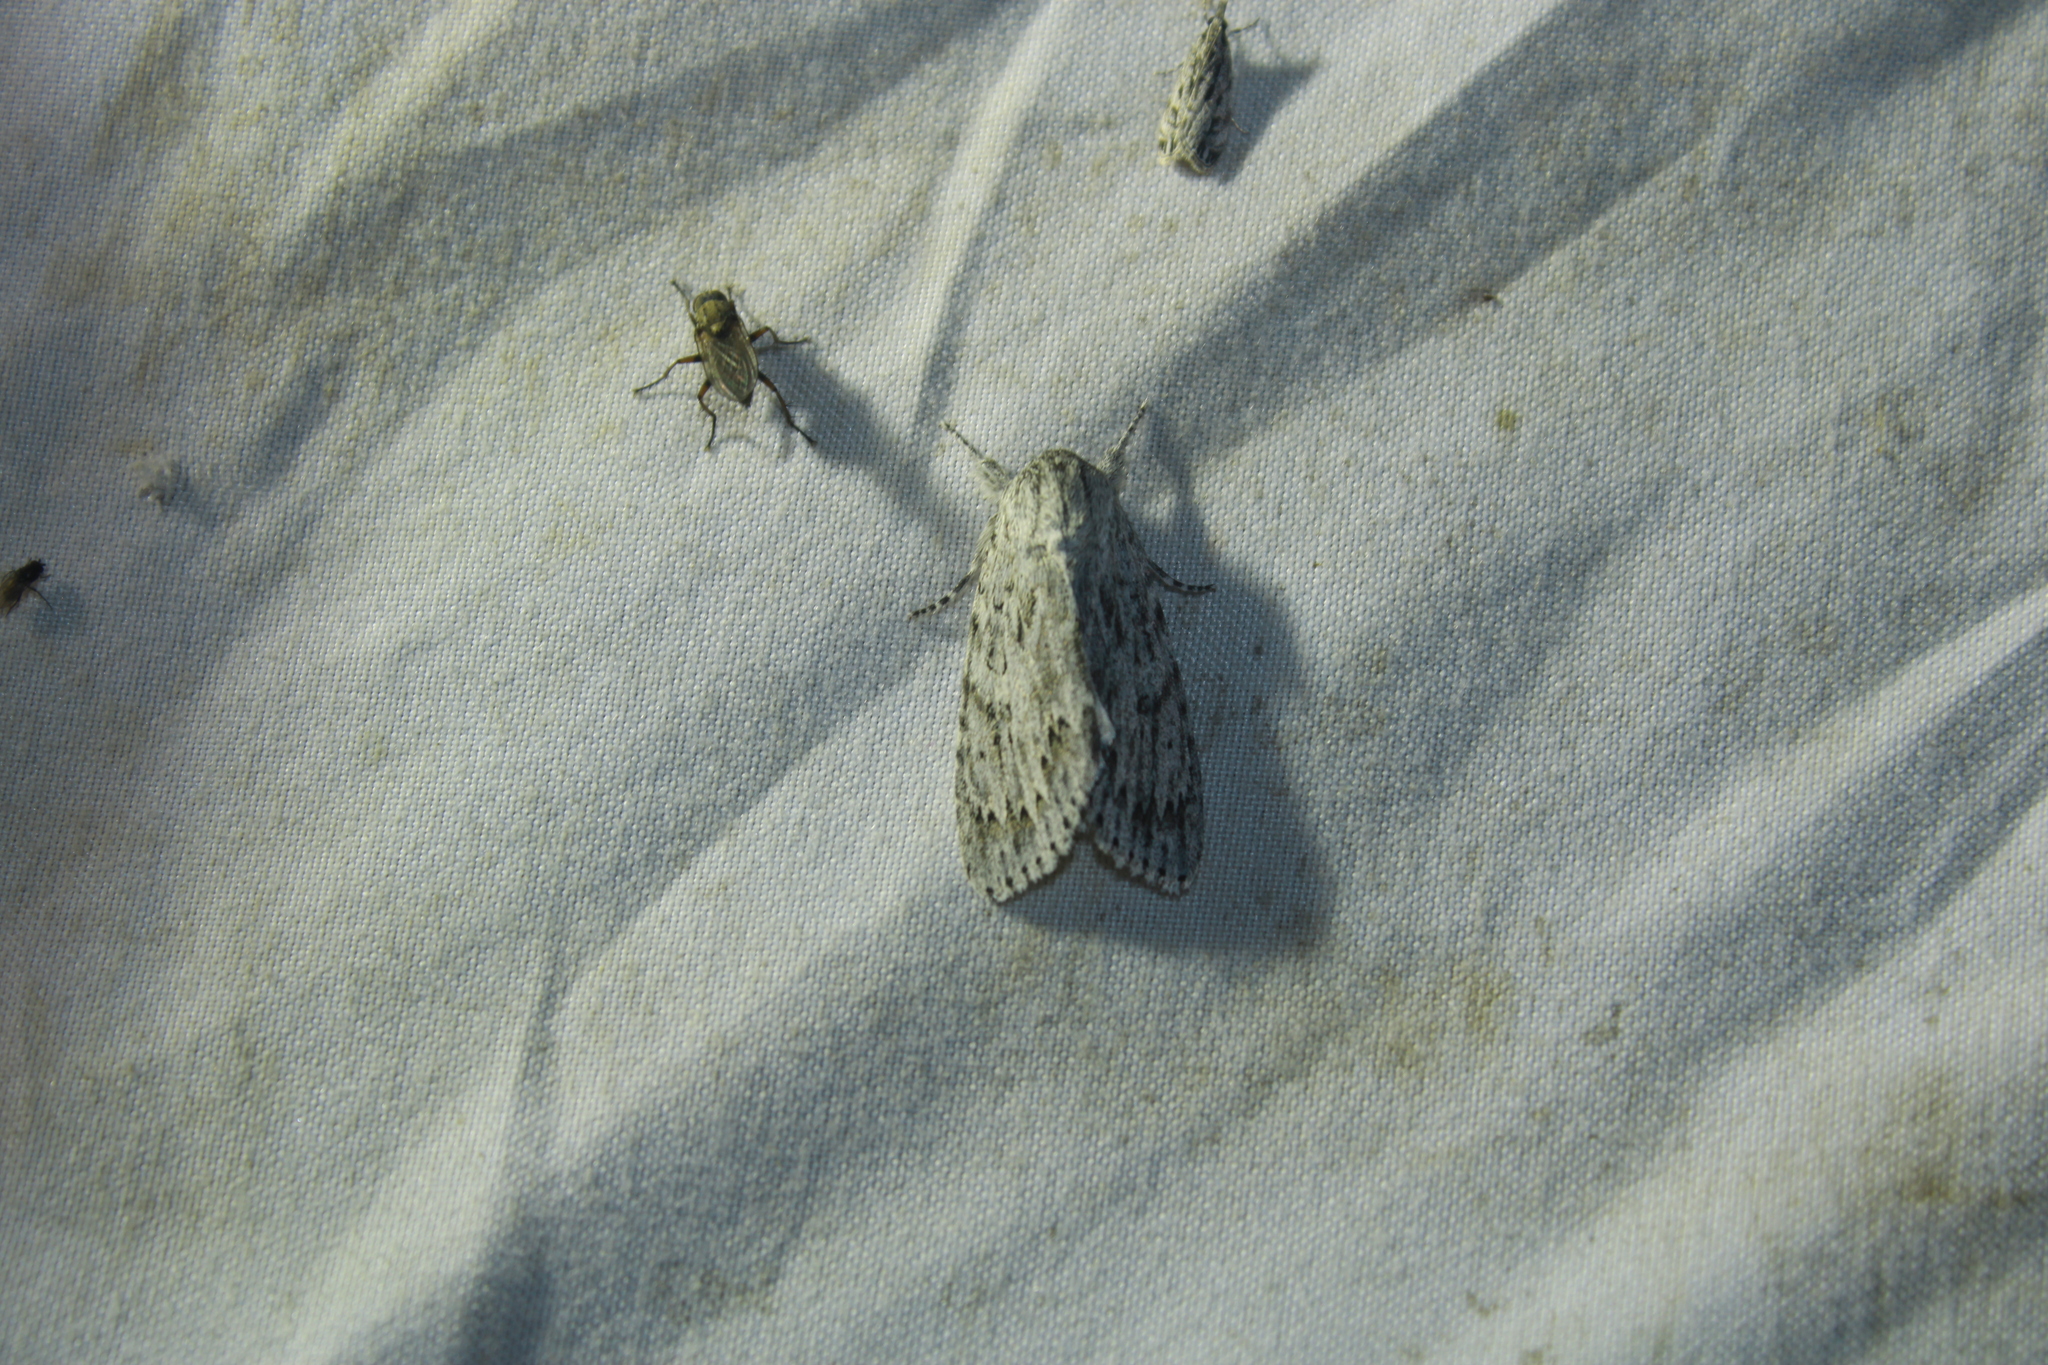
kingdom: Animalia
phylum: Arthropoda
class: Insecta
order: Lepidoptera
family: Noctuidae
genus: Acronicta
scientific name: Acronicta oblinita
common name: Smeared dagger
